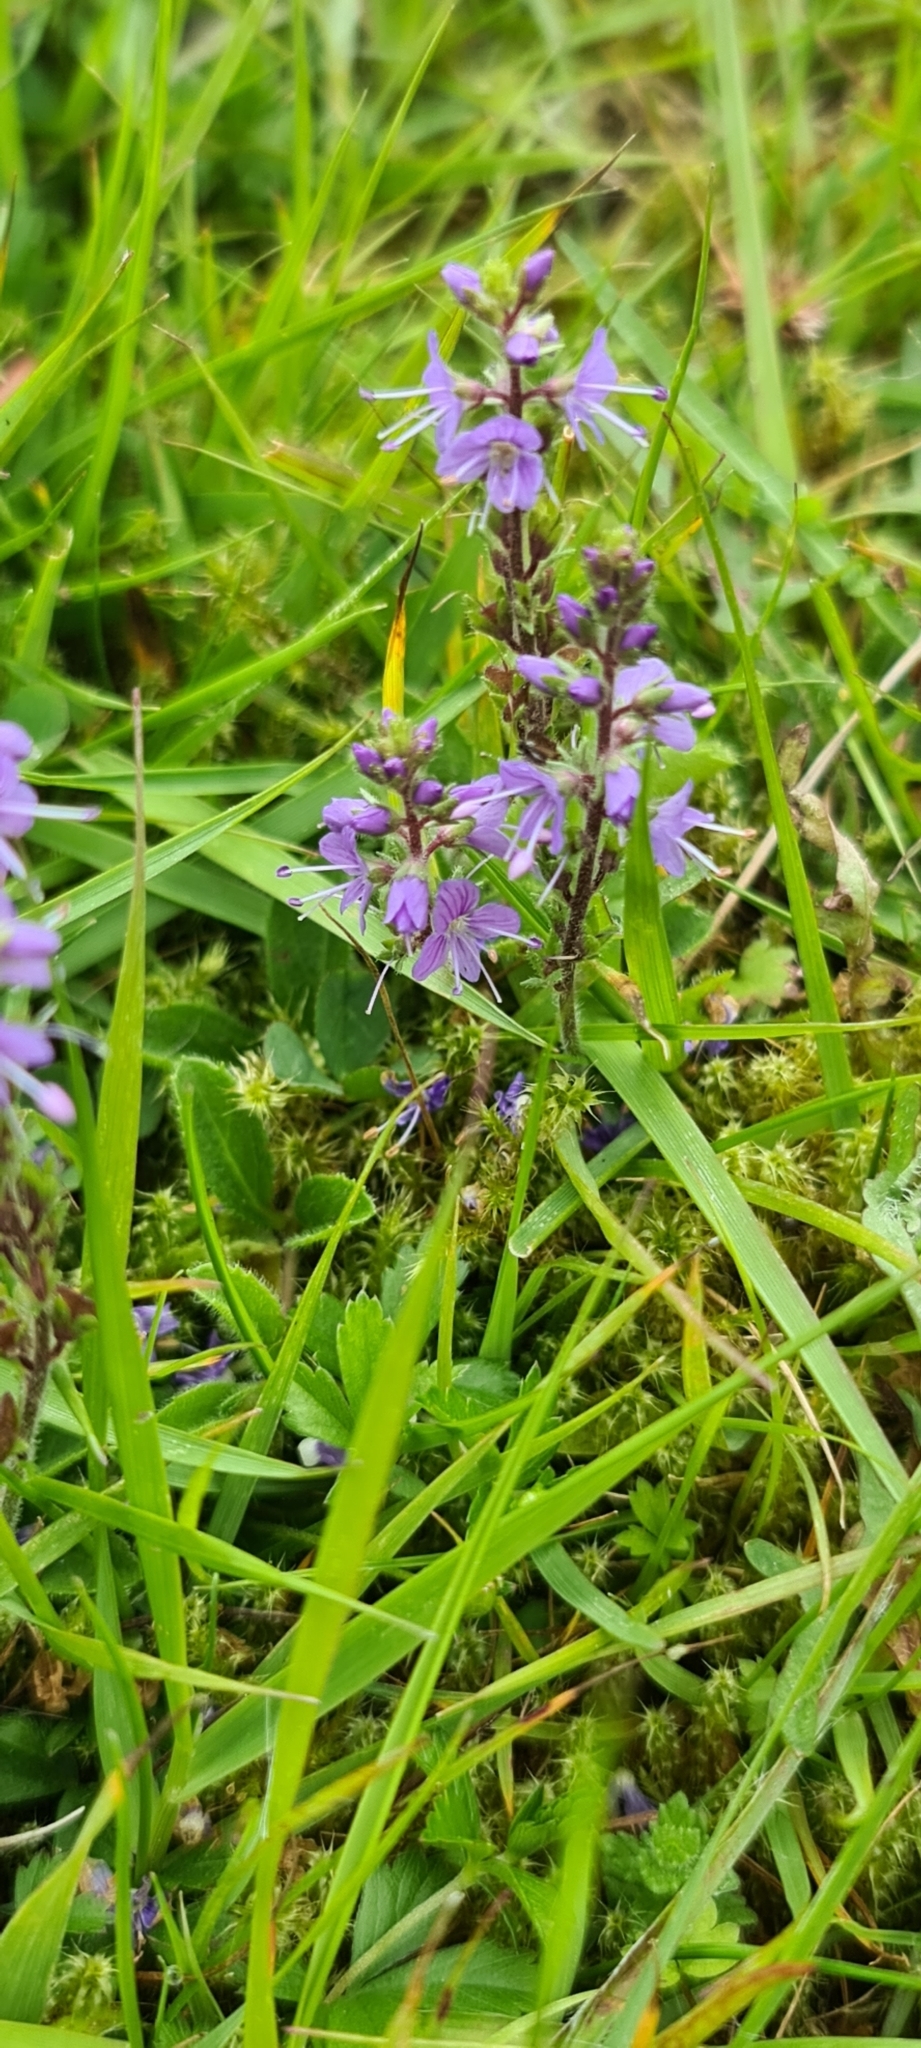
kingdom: Plantae
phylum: Tracheophyta
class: Magnoliopsida
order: Lamiales
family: Plantaginaceae
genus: Veronica
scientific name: Veronica officinalis
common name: Common speedwell
